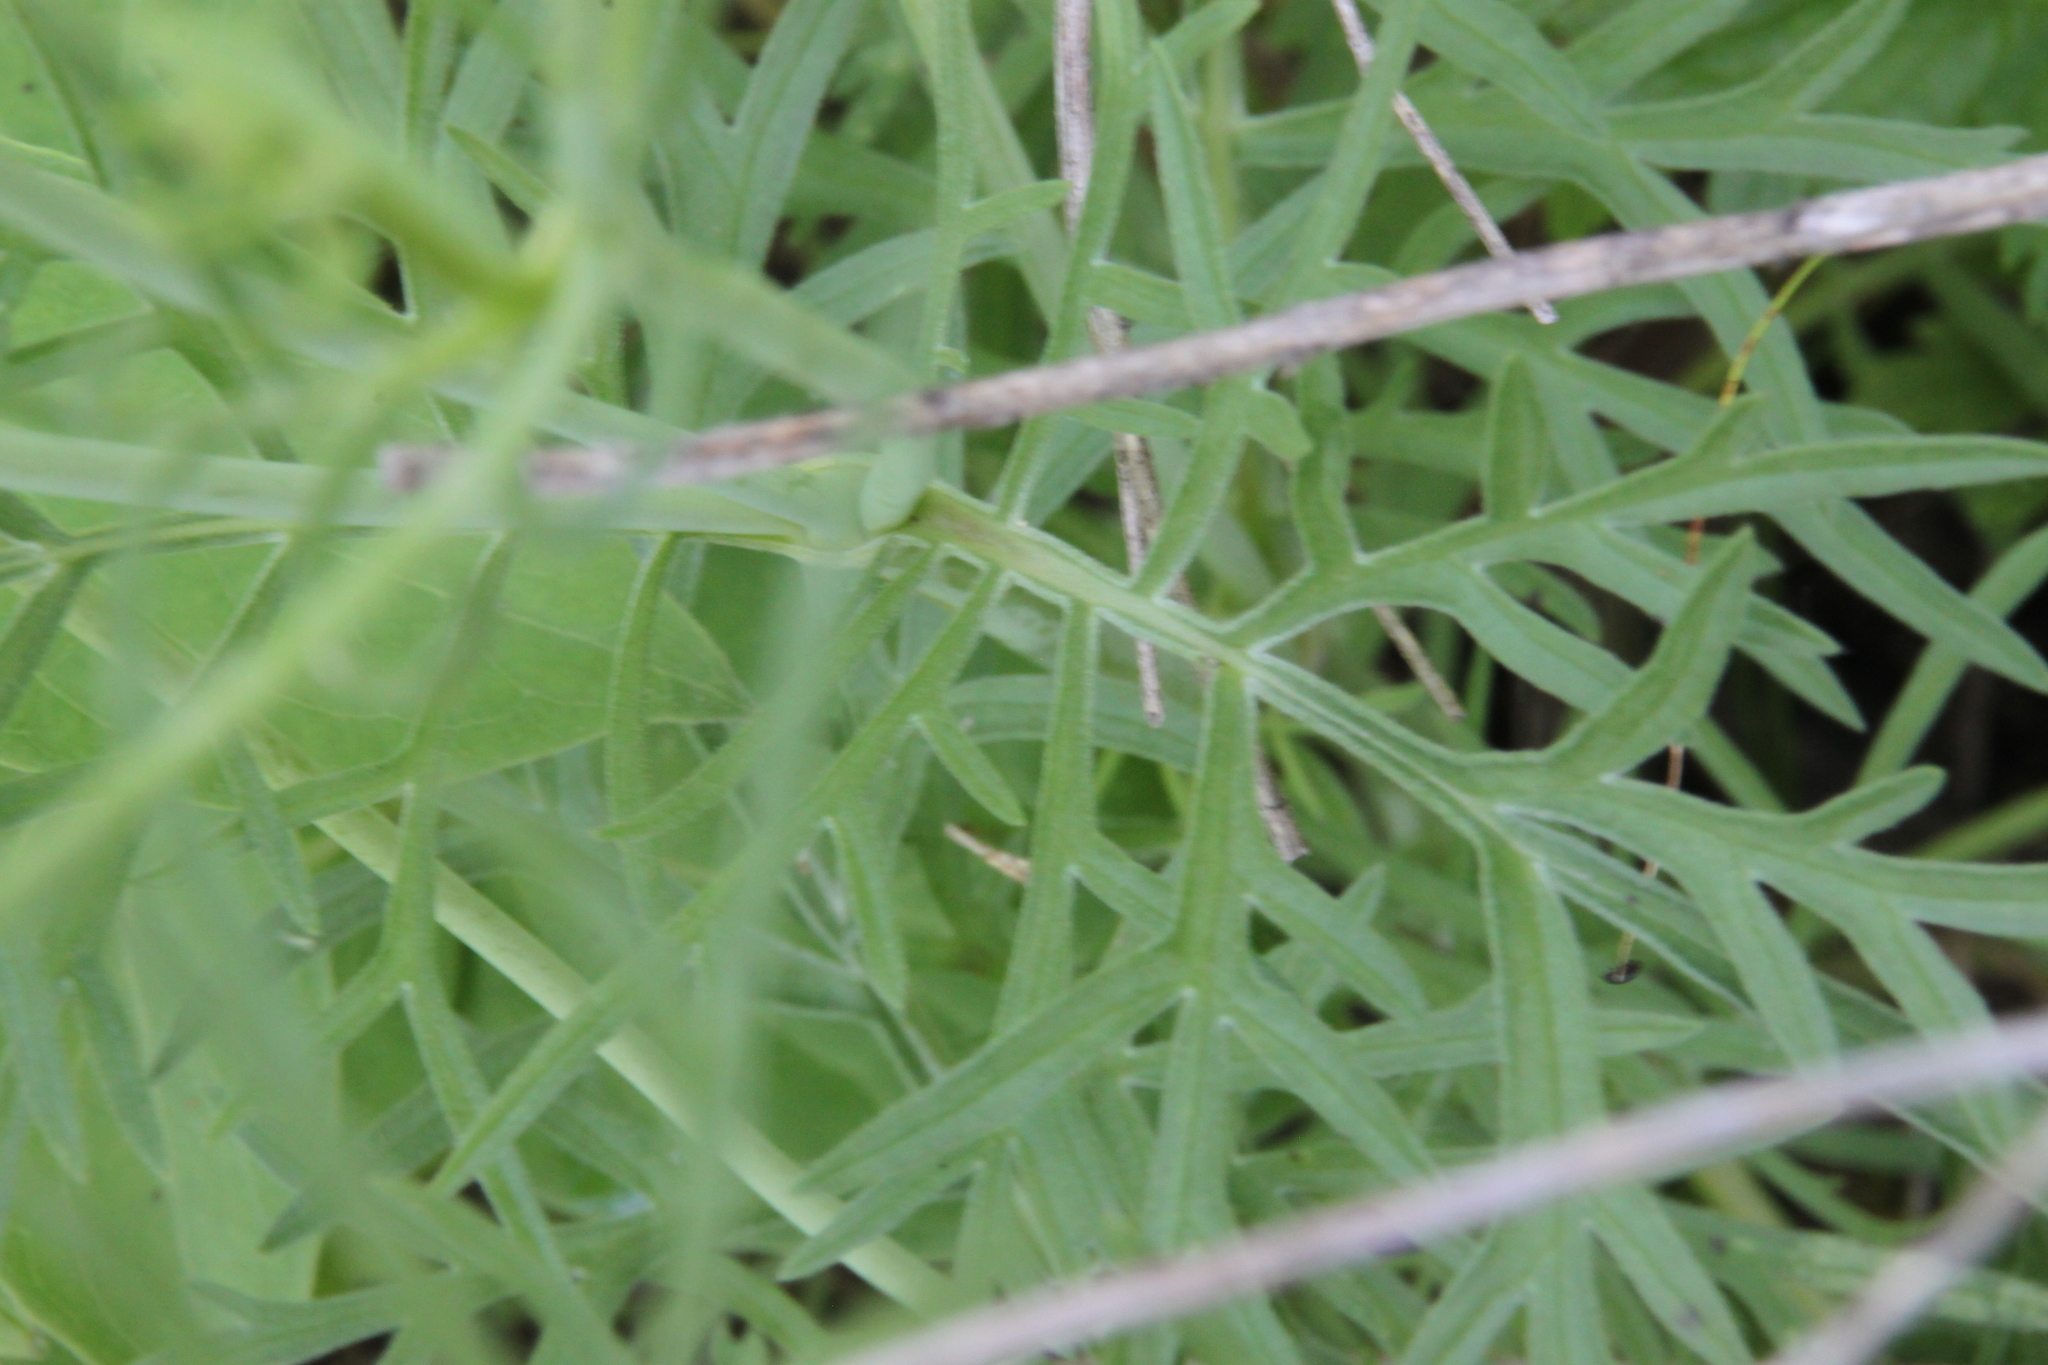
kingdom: Plantae
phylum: Tracheophyta
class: Magnoliopsida
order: Dipsacales
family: Caprifoliaceae
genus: Scabiosa
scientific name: Scabiosa ochroleuca
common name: Cream pincushions
